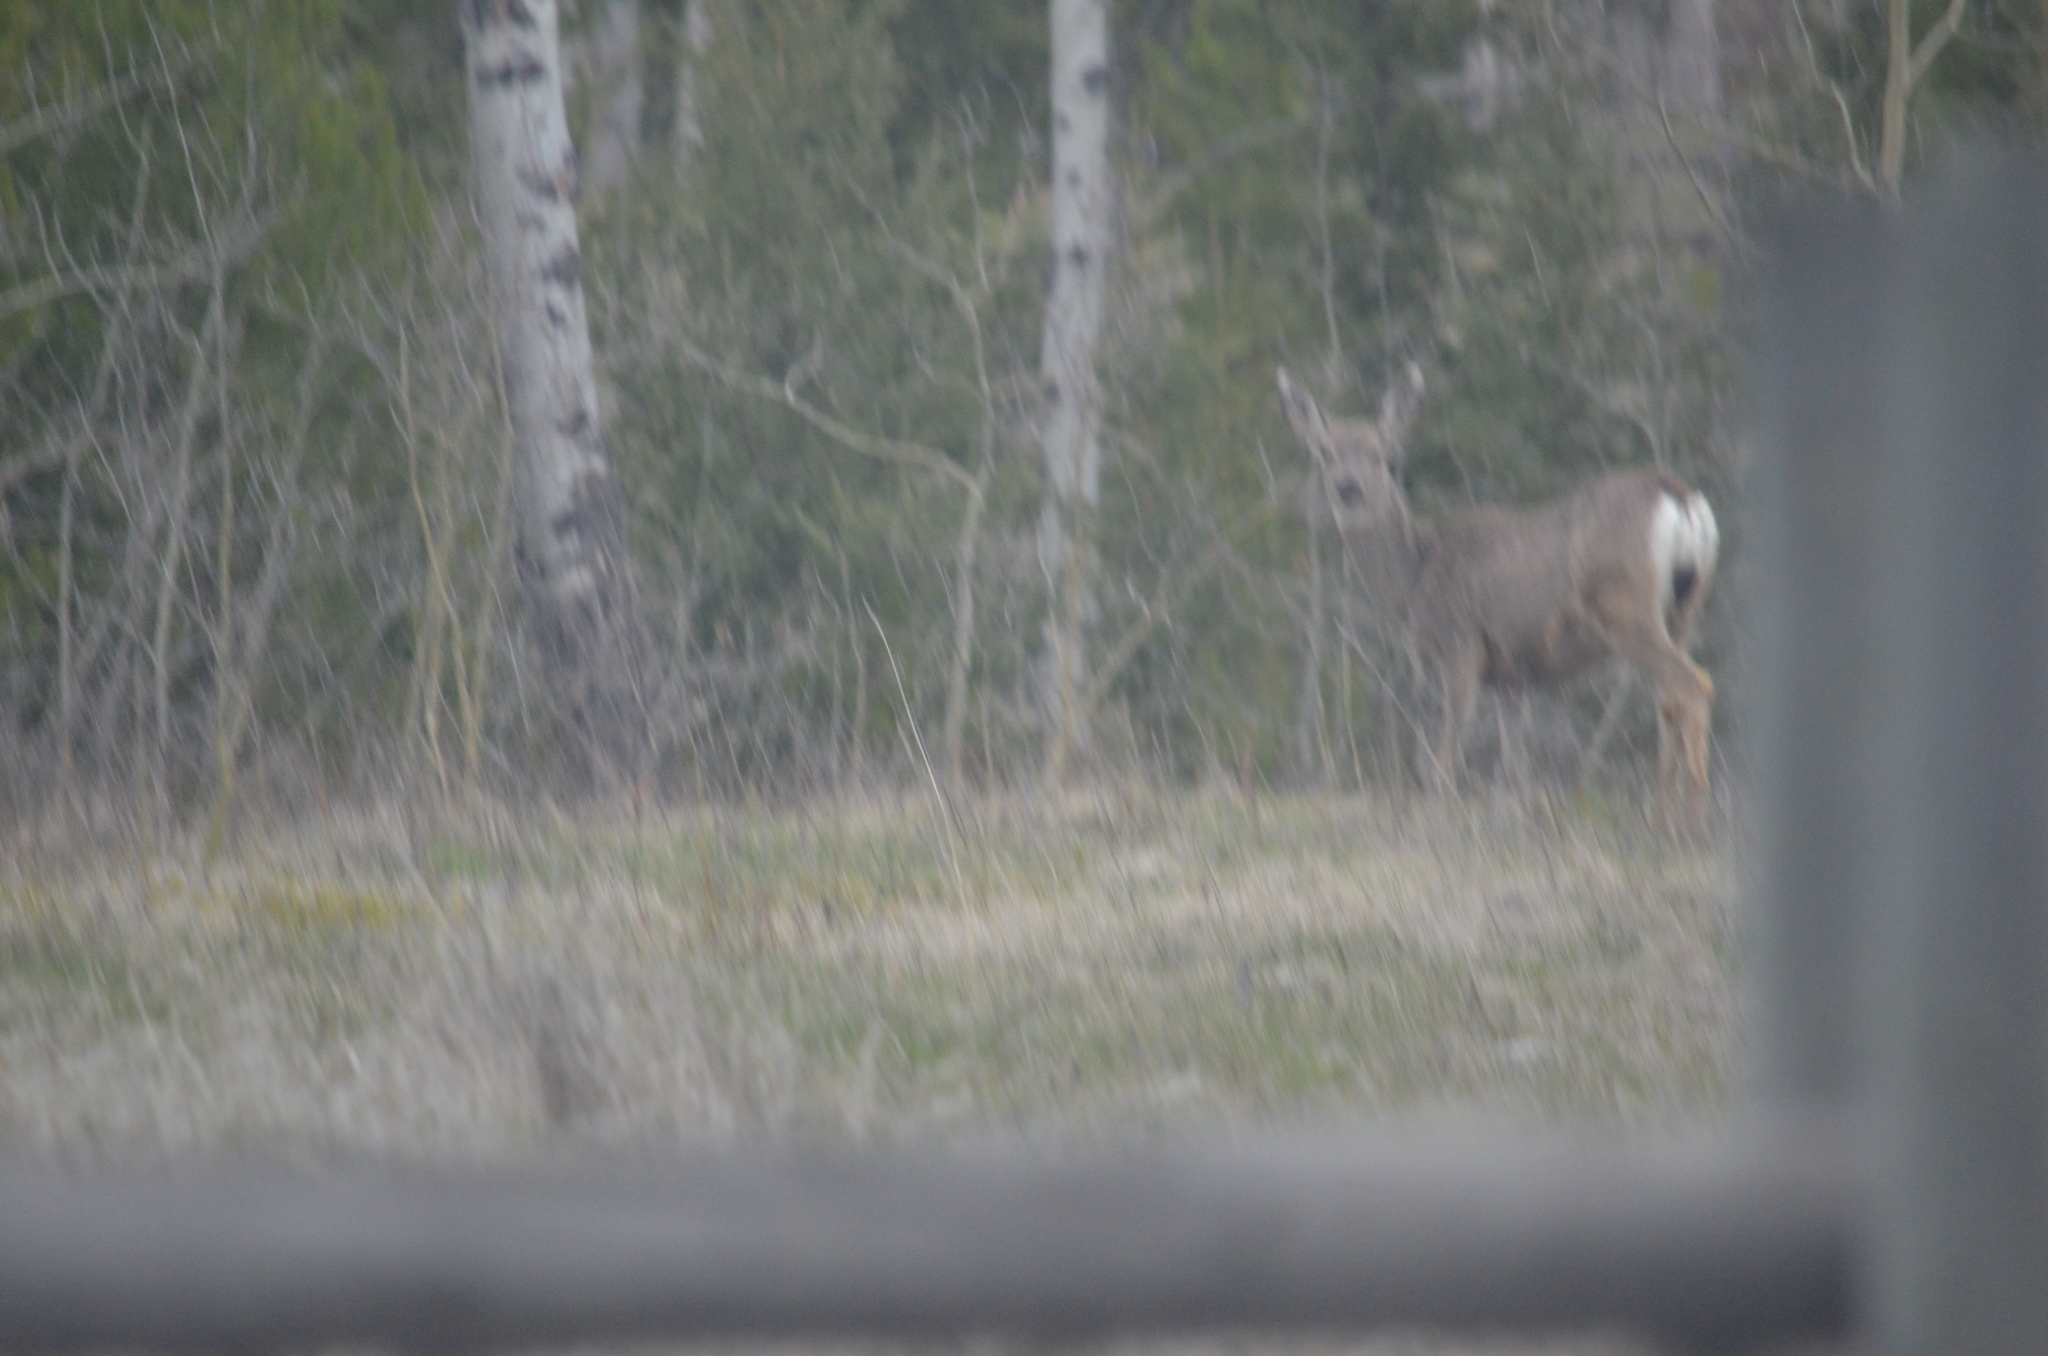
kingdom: Animalia
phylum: Chordata
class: Mammalia
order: Artiodactyla
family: Cervidae
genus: Odocoileus
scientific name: Odocoileus hemionus
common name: Mule deer
